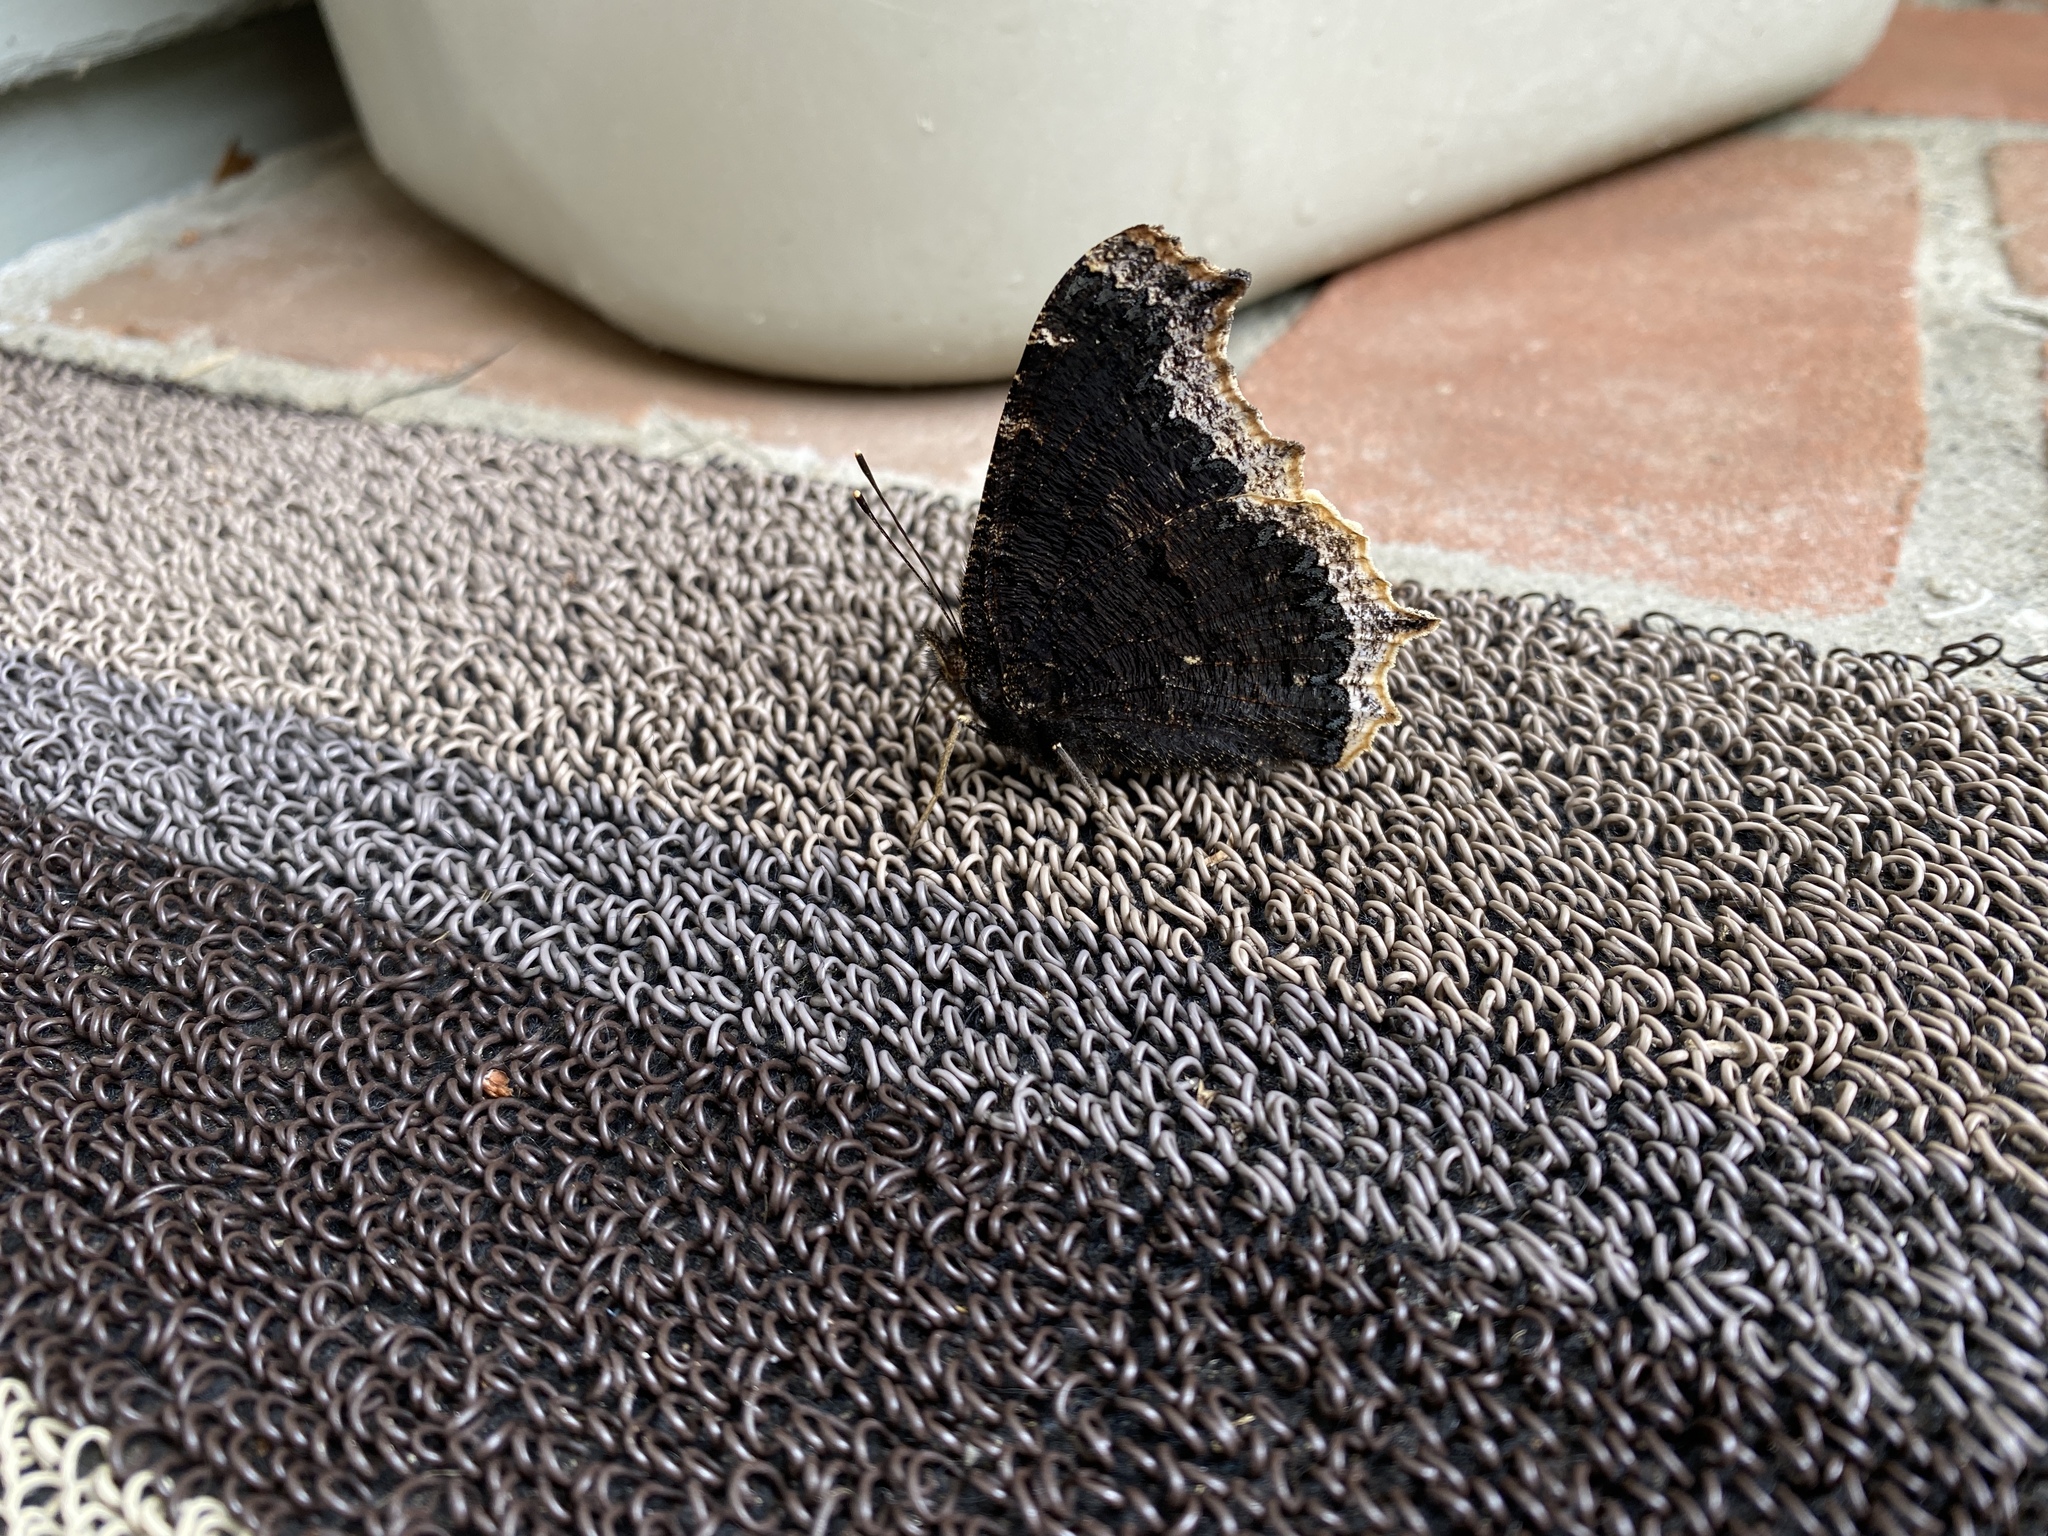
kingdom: Animalia
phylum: Arthropoda
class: Insecta
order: Lepidoptera
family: Nymphalidae
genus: Nymphalis
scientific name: Nymphalis antiopa
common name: Camberwell beauty
